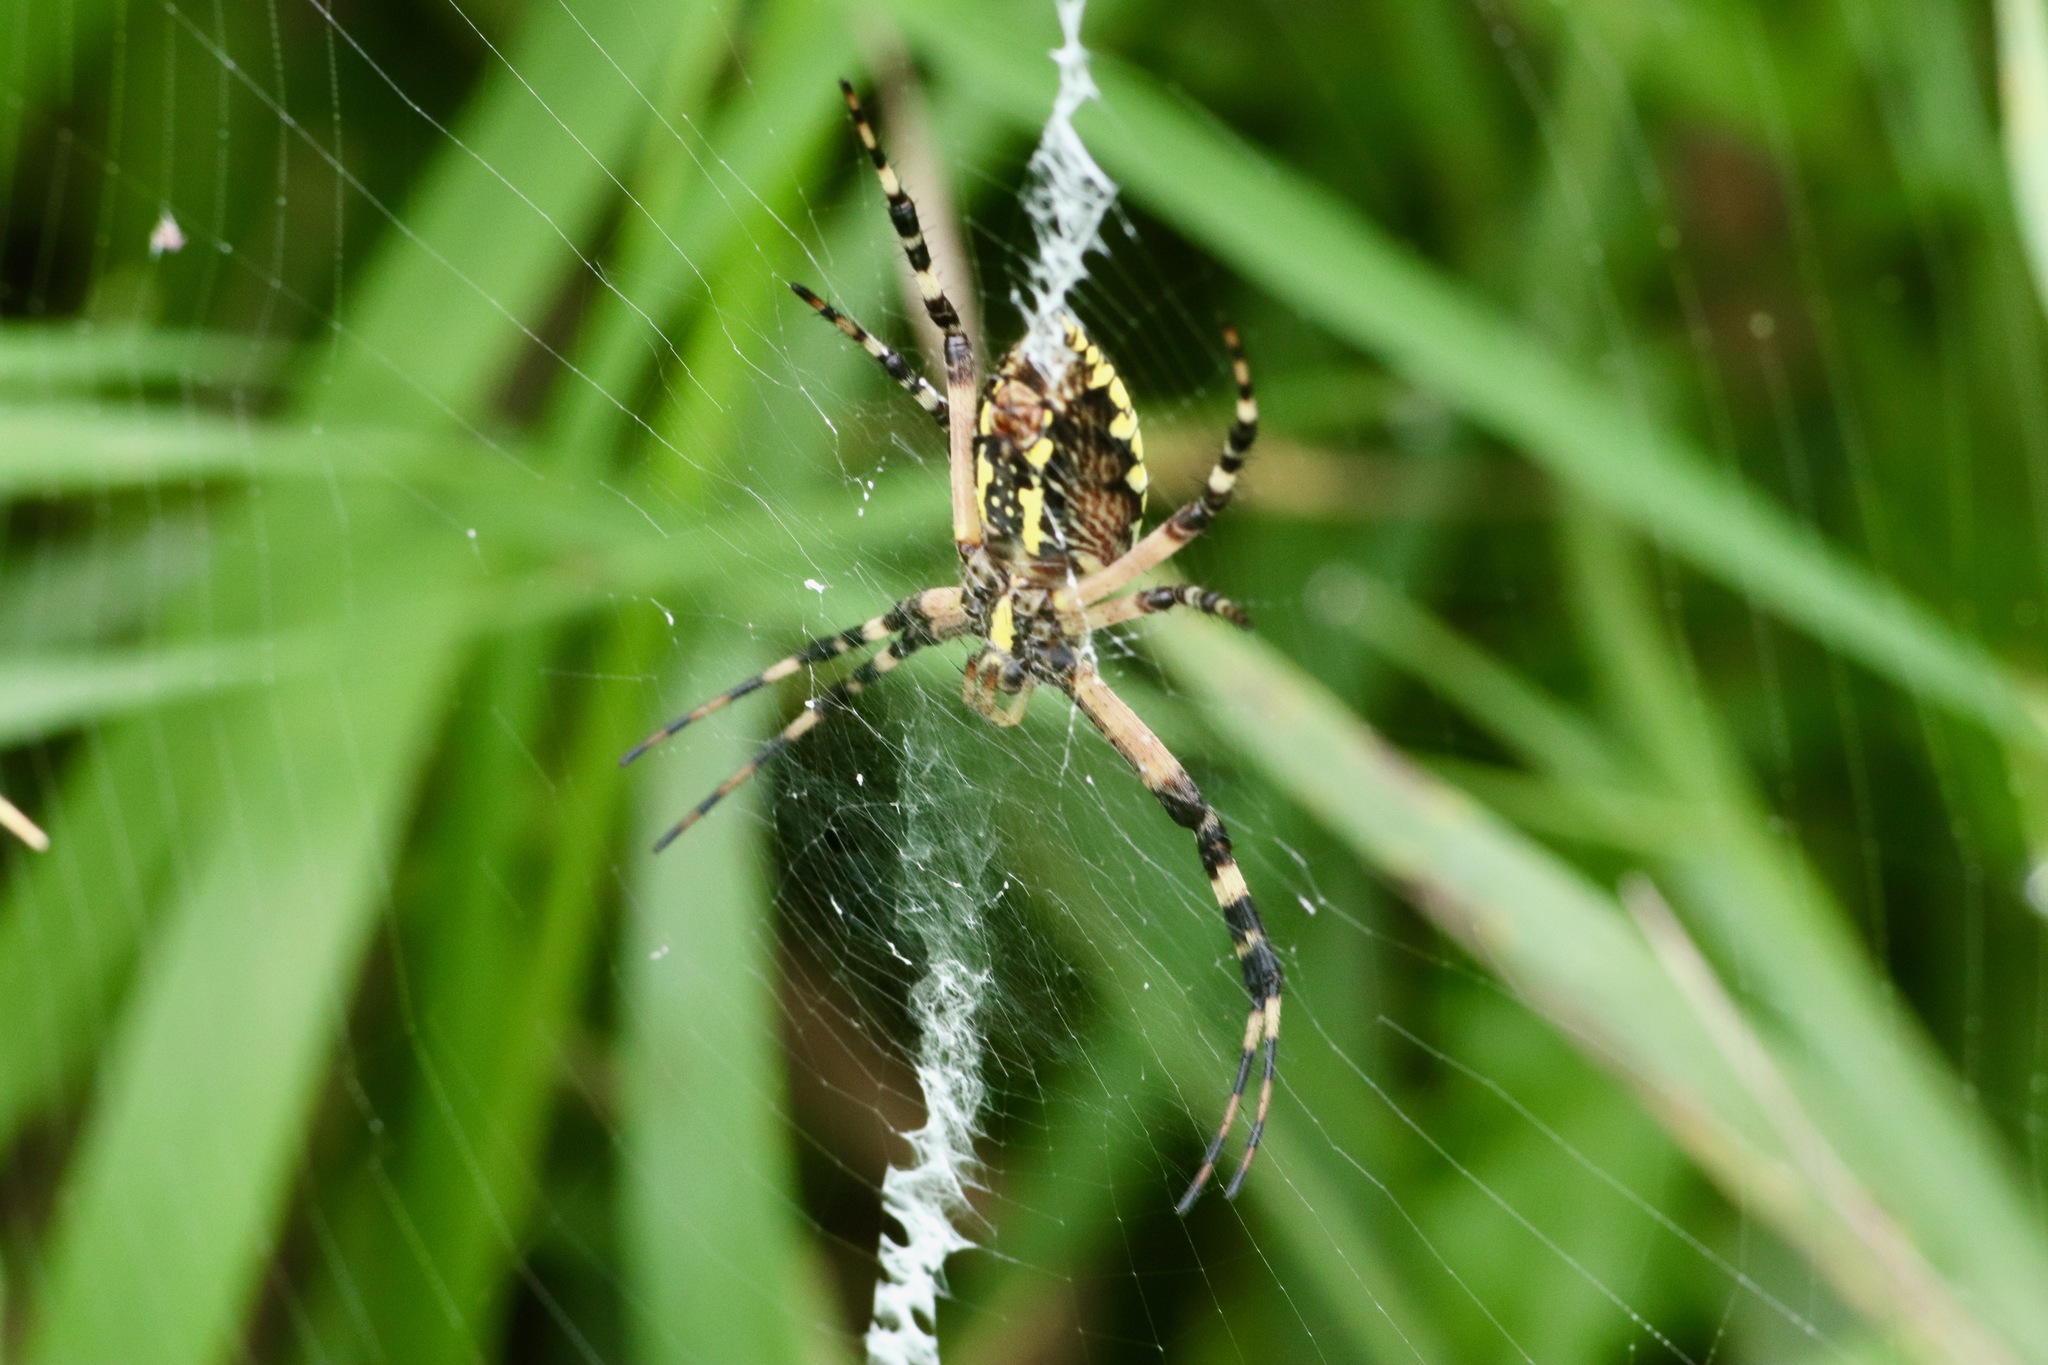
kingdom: Animalia
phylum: Arthropoda
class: Arachnida
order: Araneae
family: Araneidae
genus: Argiope
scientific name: Argiope aurantia
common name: Orb weavers
